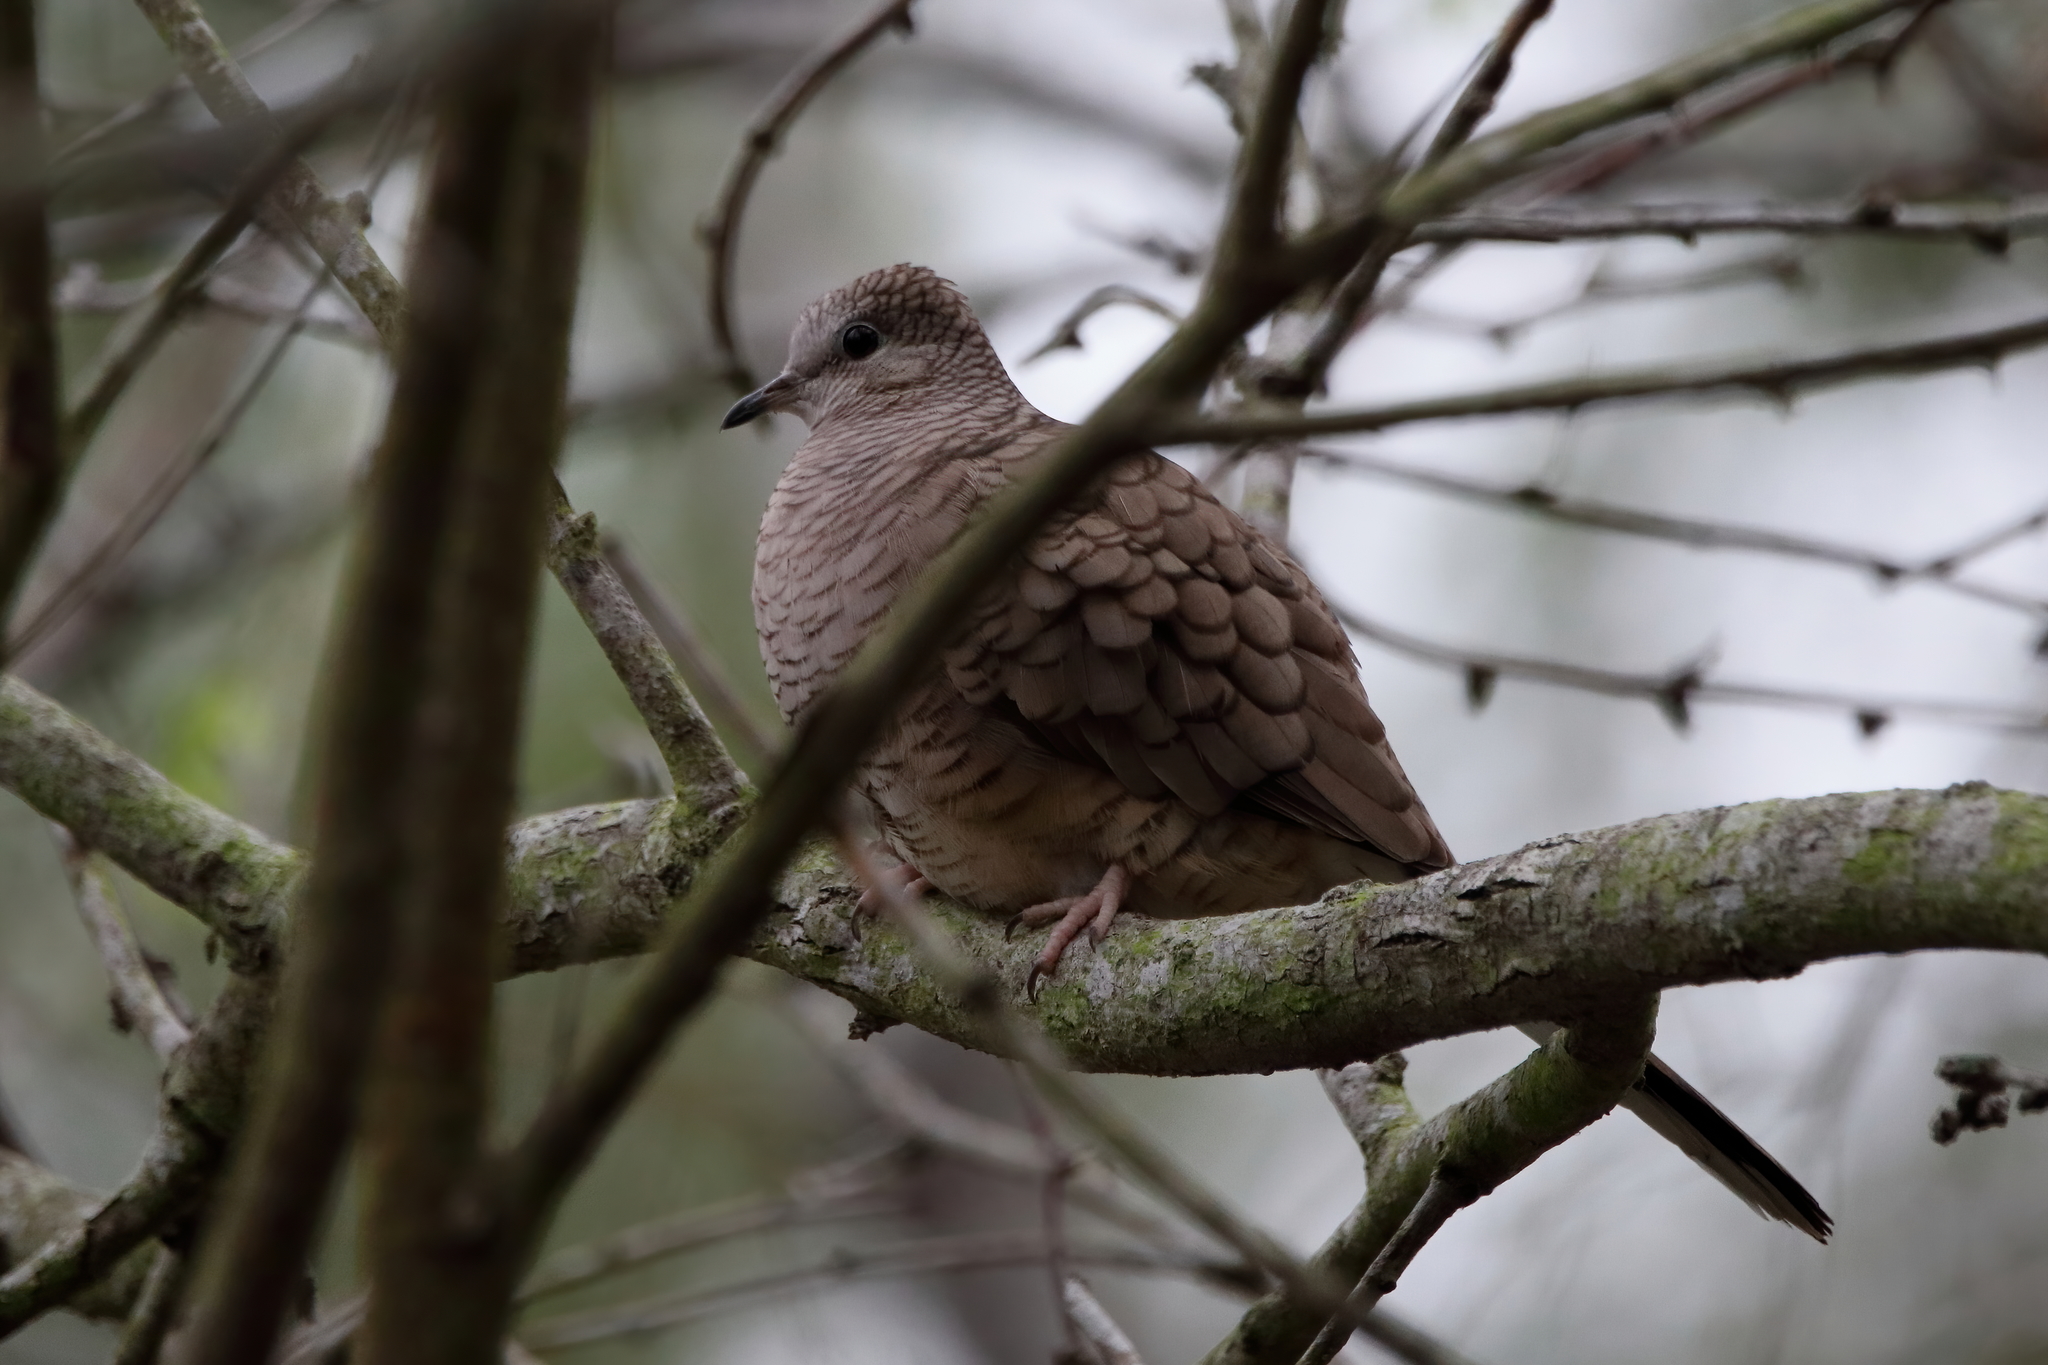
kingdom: Animalia
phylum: Chordata
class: Aves
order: Columbiformes
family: Columbidae
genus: Columbina
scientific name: Columbina inca
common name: Inca dove
